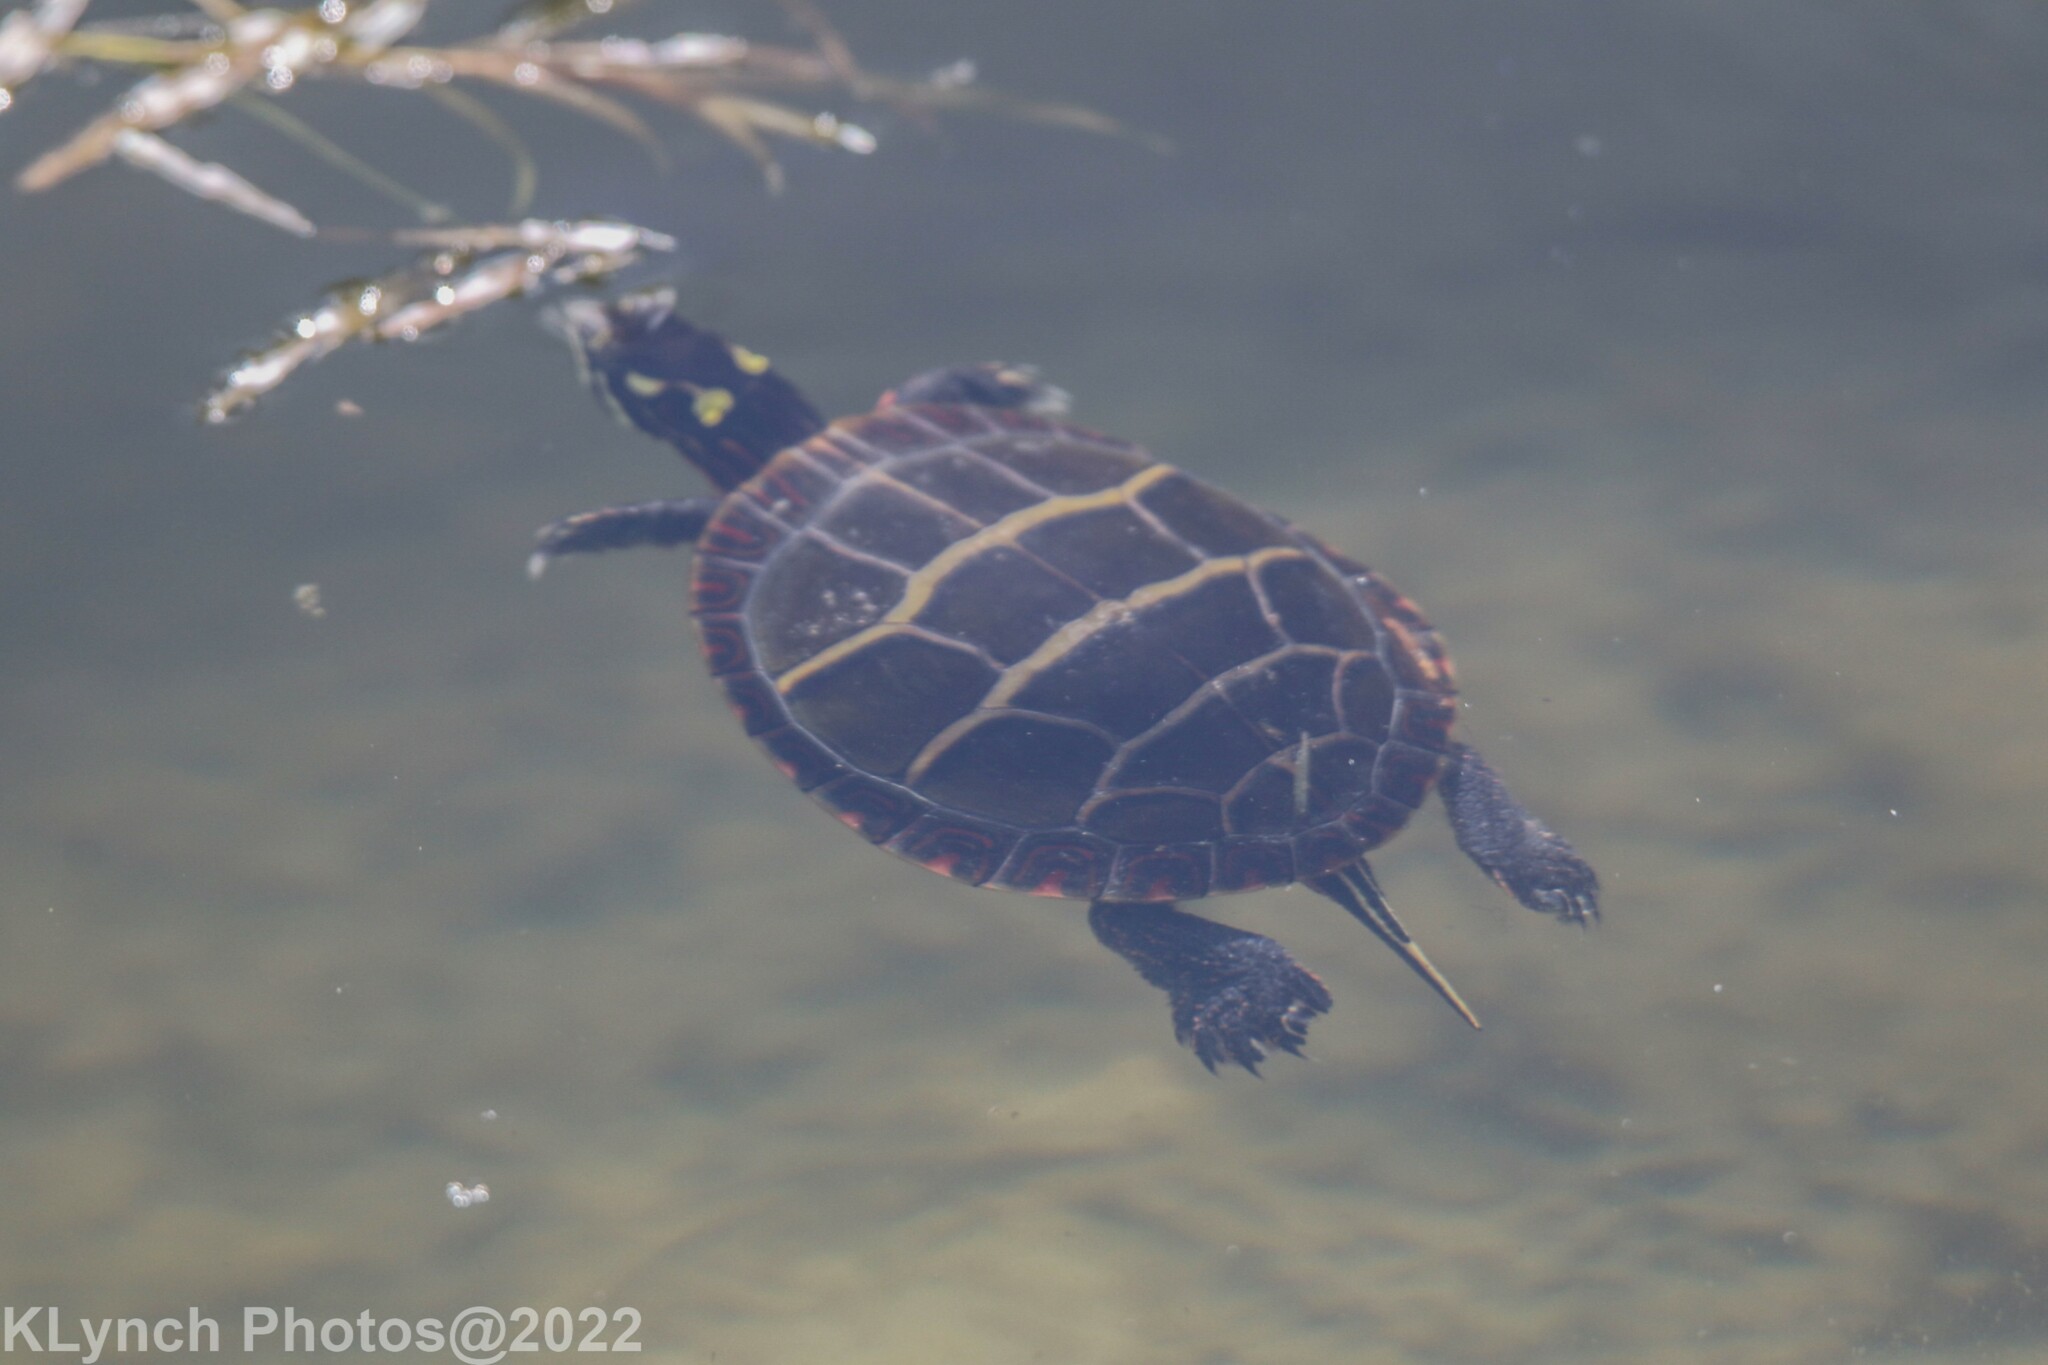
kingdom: Animalia
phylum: Chordata
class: Testudines
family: Emydidae
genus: Chrysemys
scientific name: Chrysemys picta
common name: Painted turtle
